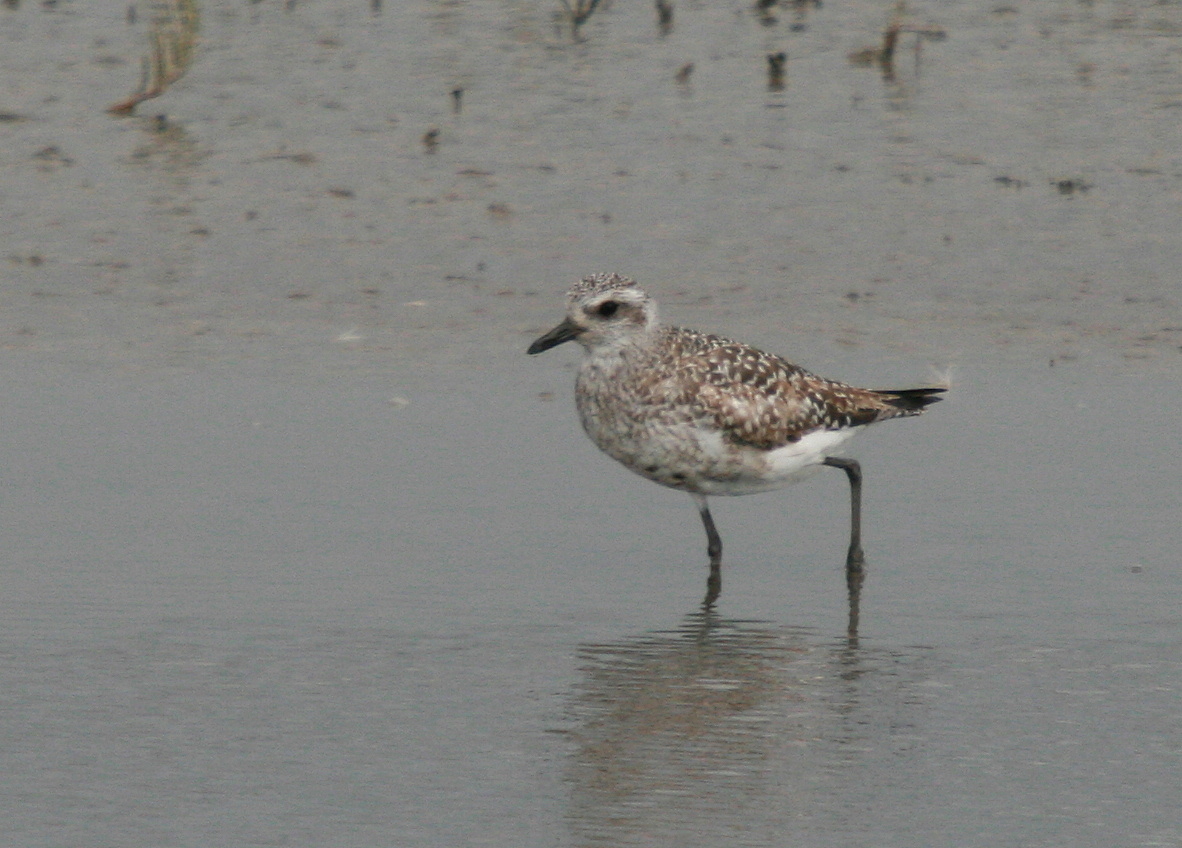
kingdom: Animalia
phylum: Chordata
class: Aves
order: Charadriiformes
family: Charadriidae
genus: Pluvialis
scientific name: Pluvialis squatarola
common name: Grey plover
